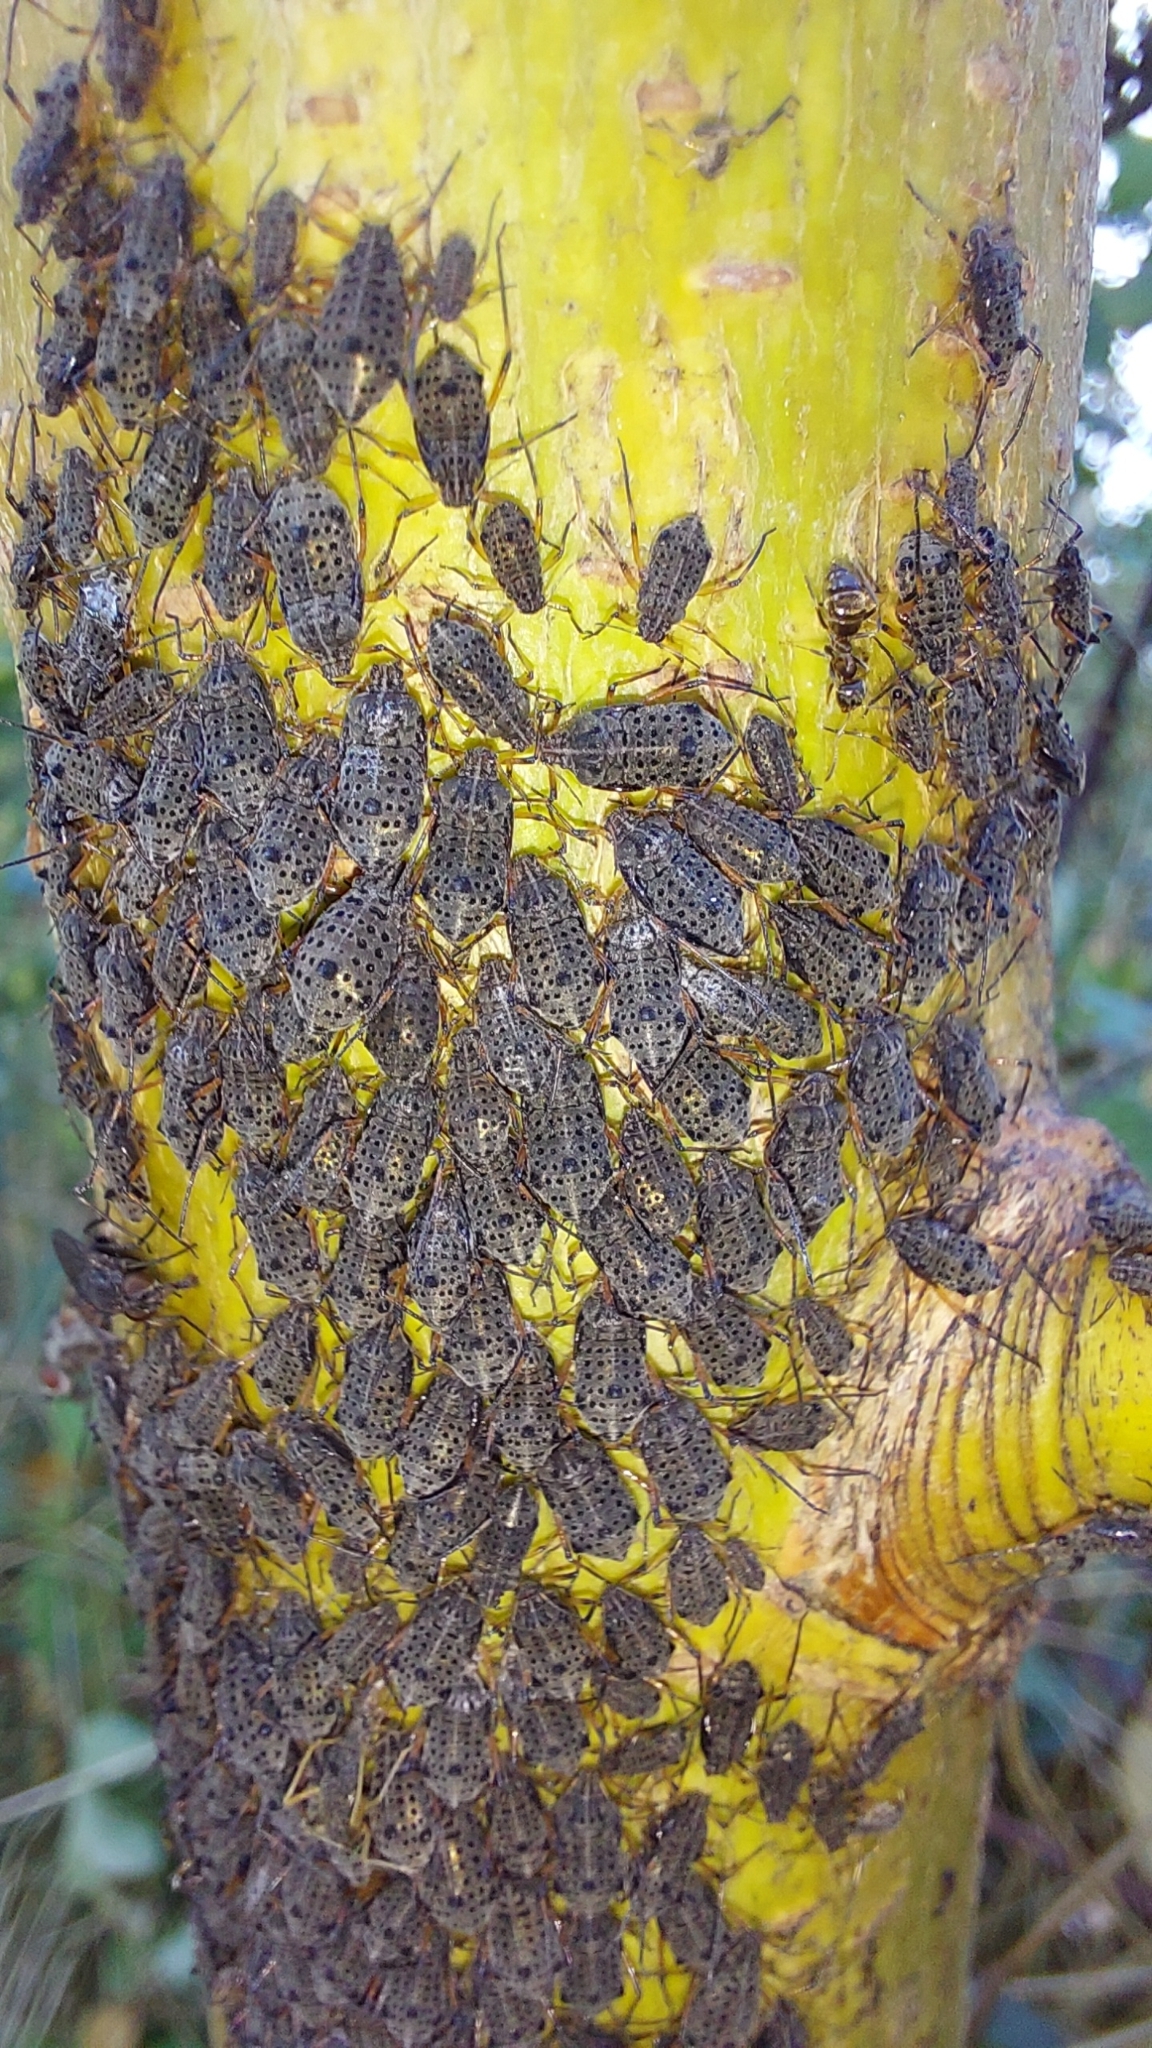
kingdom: Animalia
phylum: Arthropoda
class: Insecta
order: Hemiptera
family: Aphididae
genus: Tuberolachnus
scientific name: Tuberolachnus salignus
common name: Giant willow aphid
